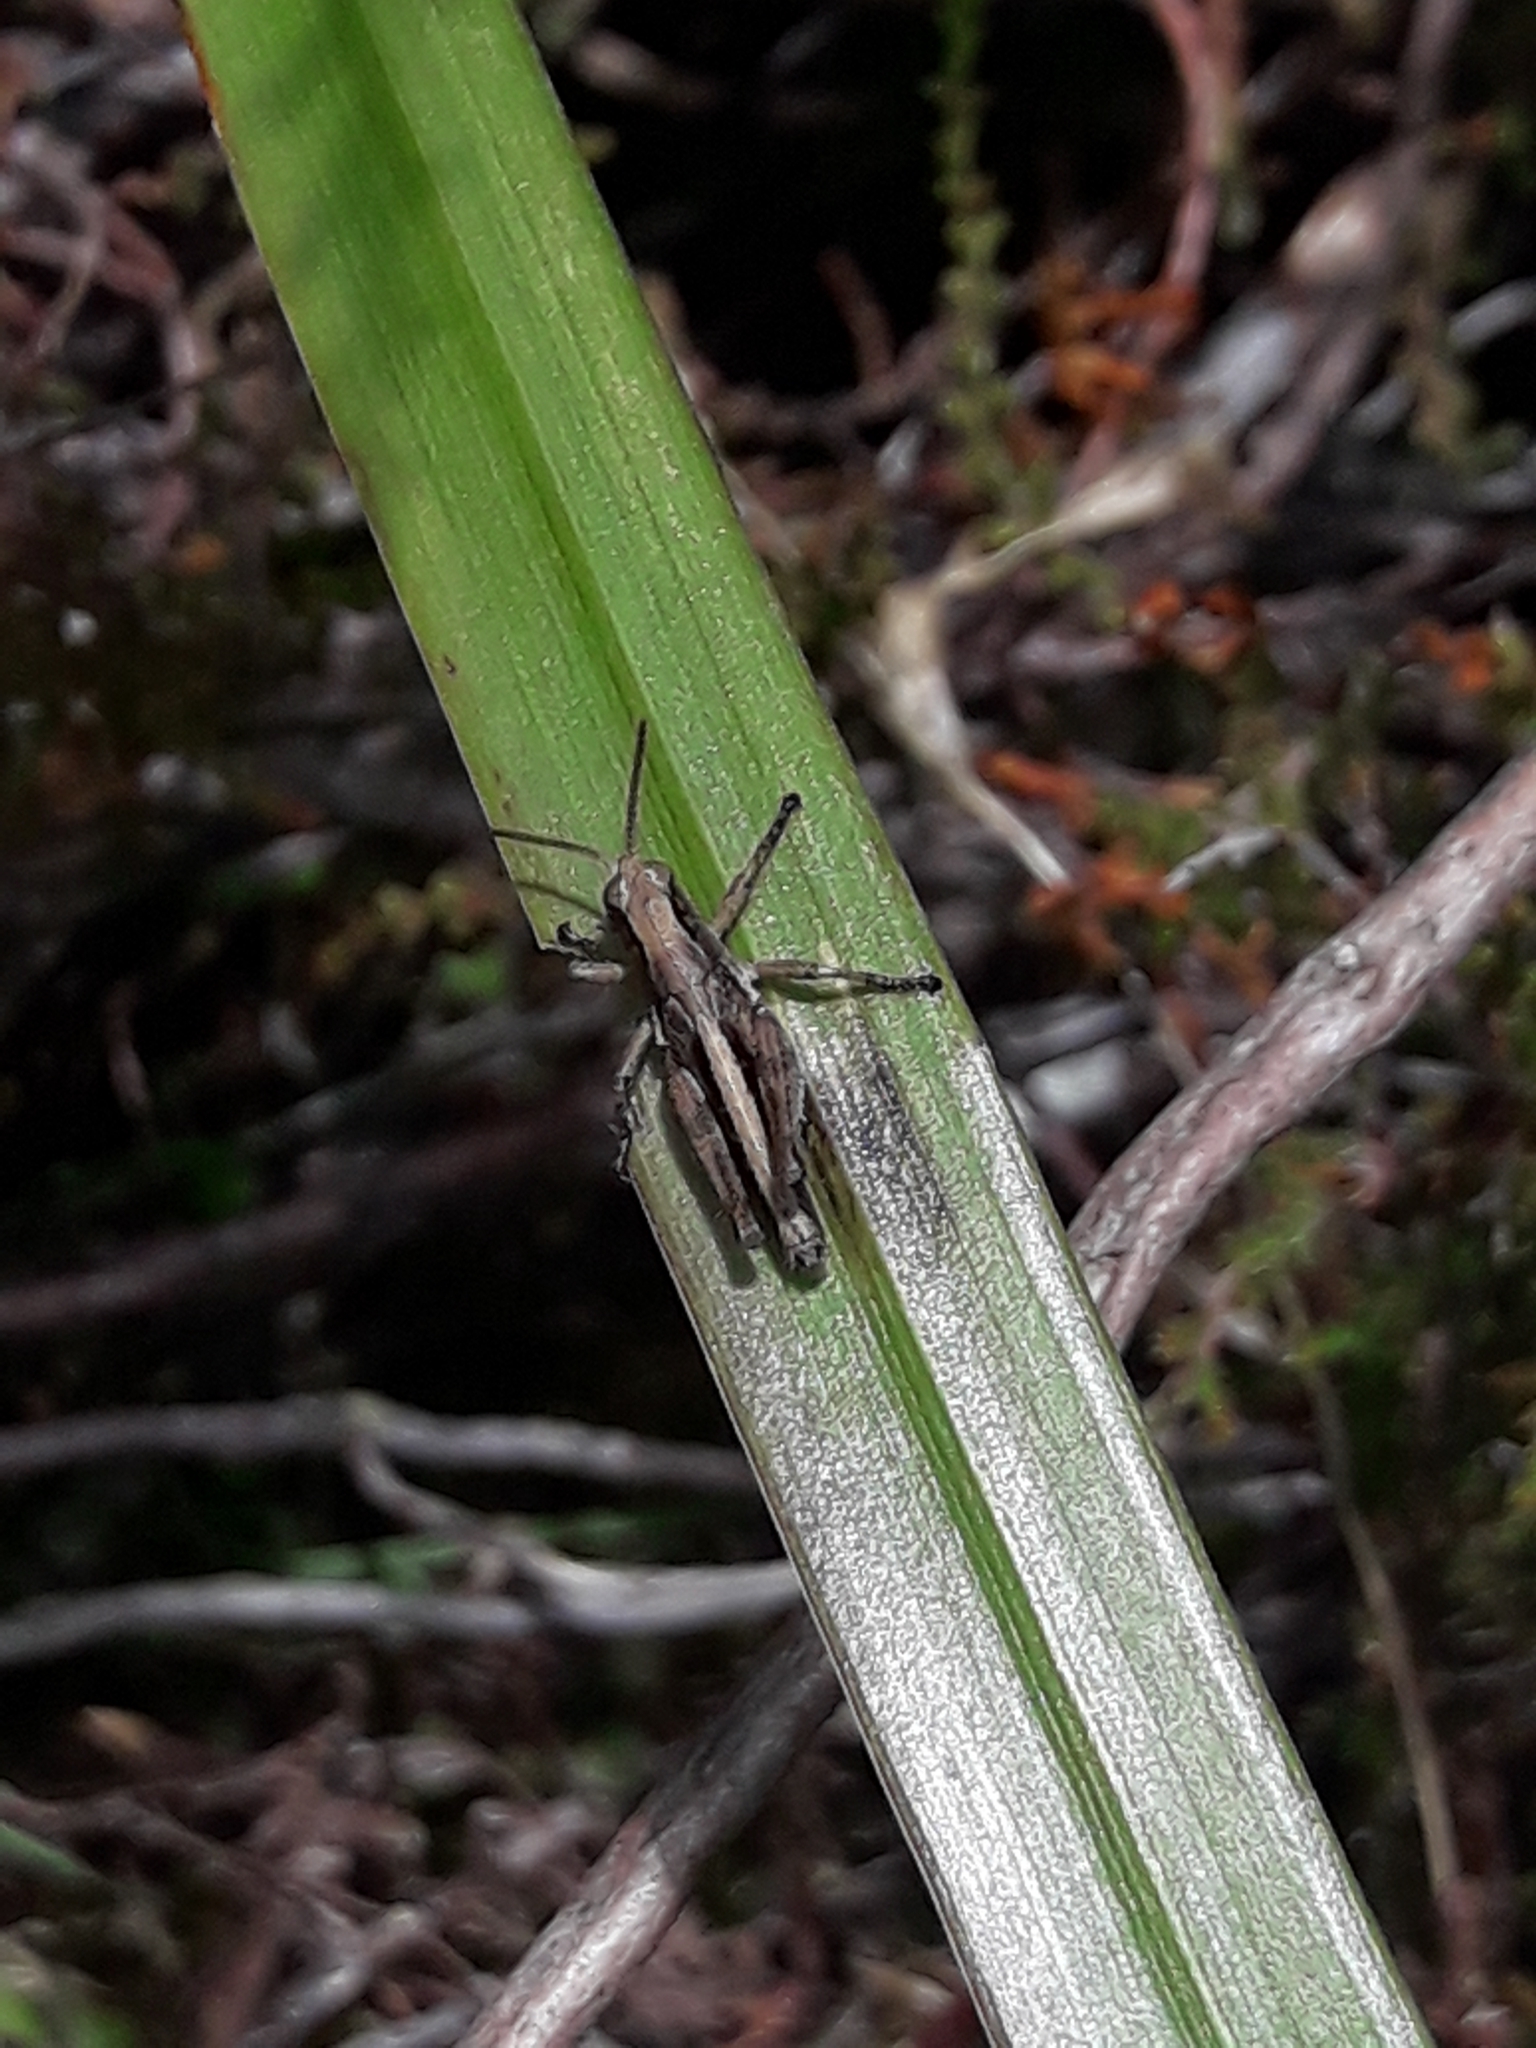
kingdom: Animalia
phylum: Arthropoda
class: Insecta
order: Orthoptera
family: Acrididae
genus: Phaulacridium
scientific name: Phaulacridium marginale
